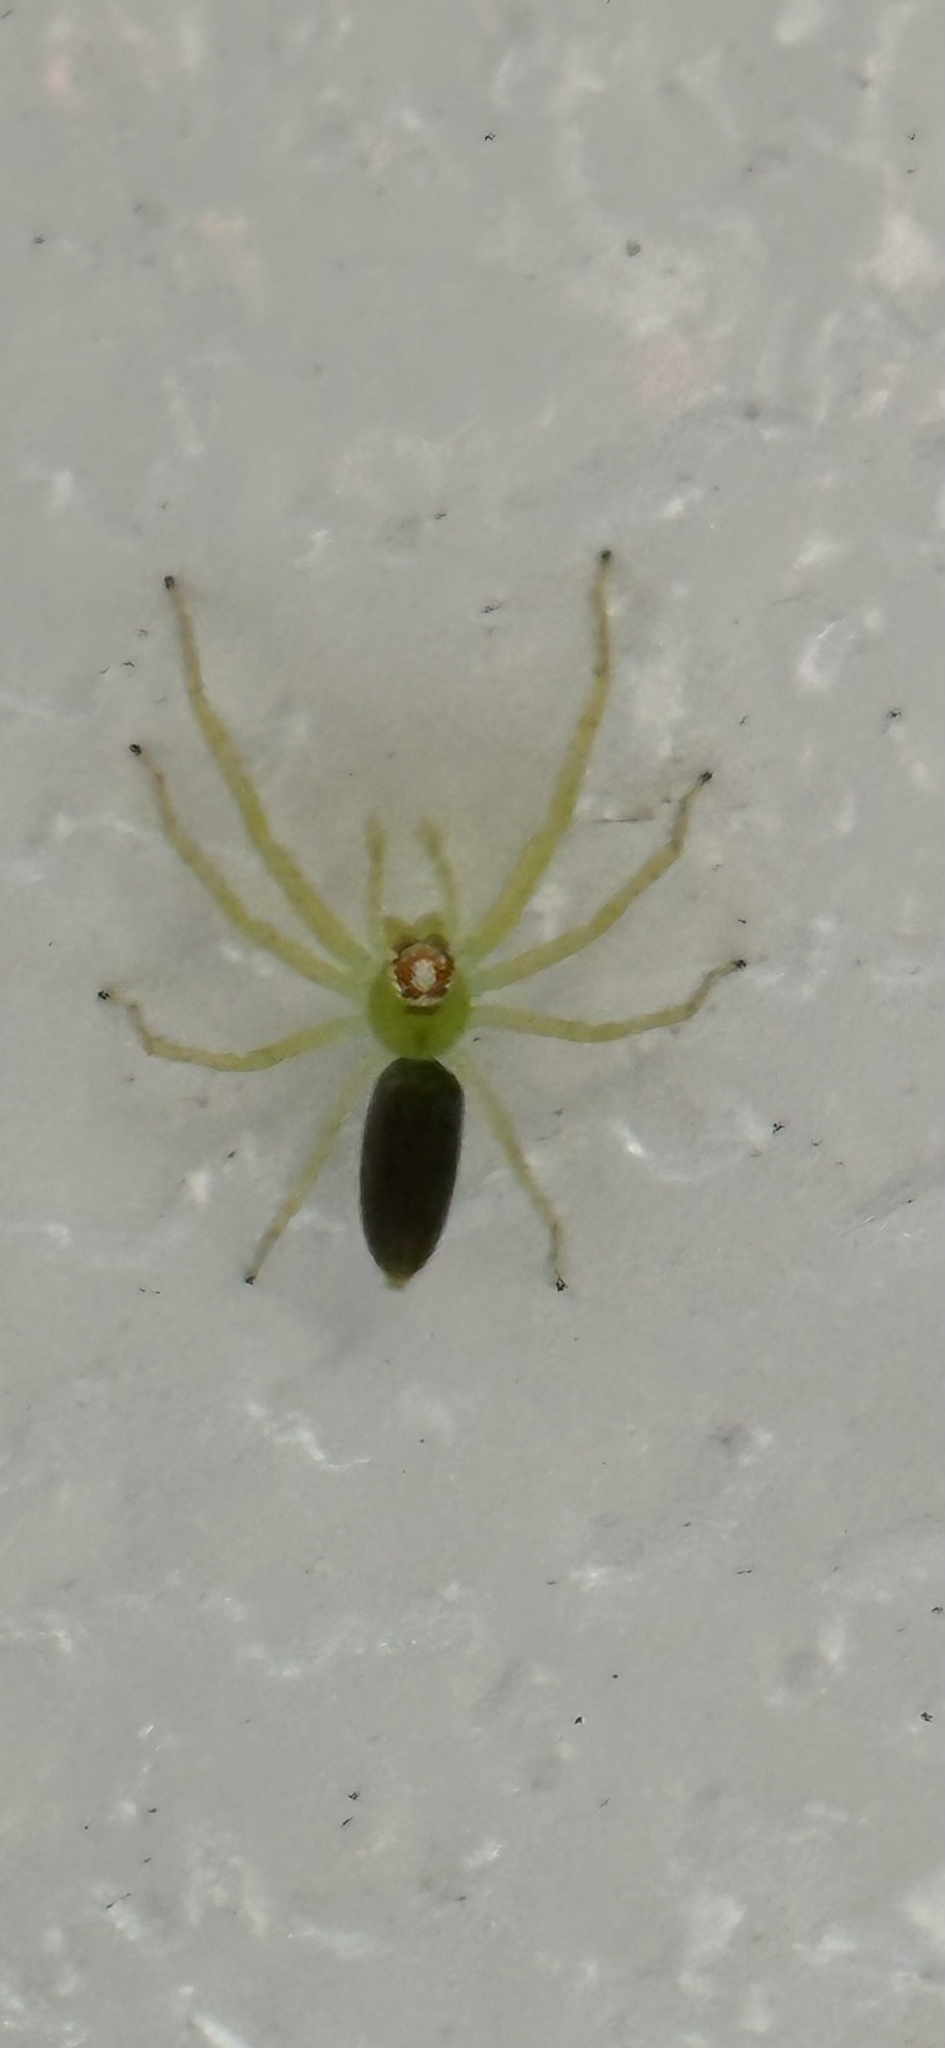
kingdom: Animalia
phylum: Arthropoda
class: Arachnida
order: Araneae
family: Salticidae
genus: Lyssomanes
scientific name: Lyssomanes viridis
